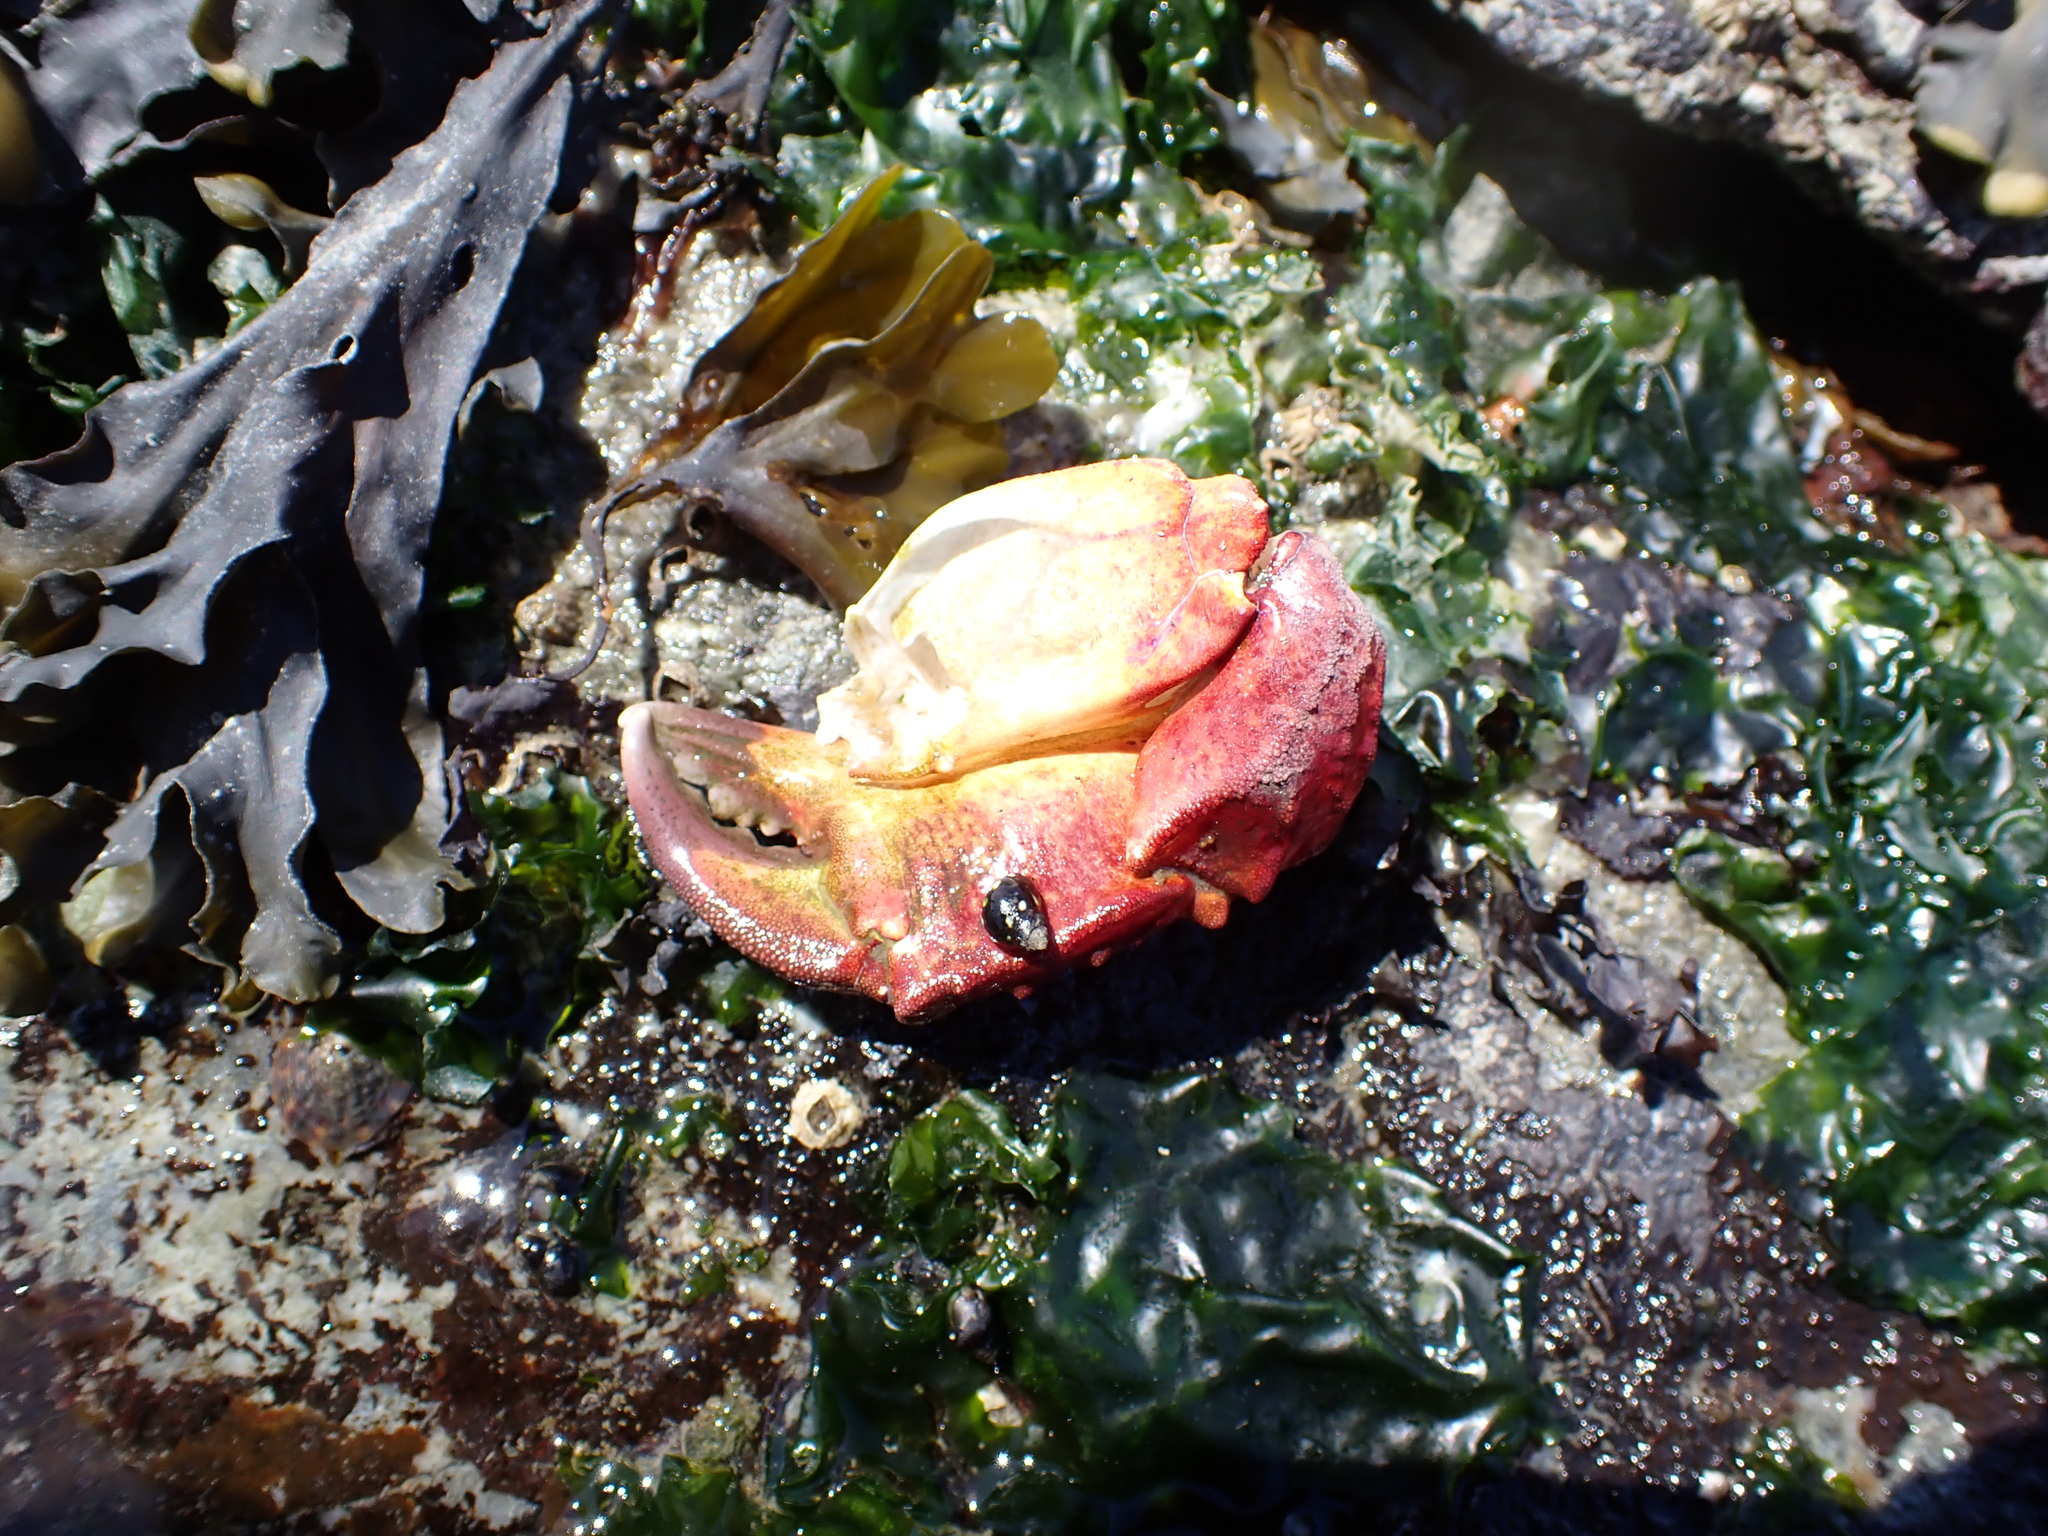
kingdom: Animalia
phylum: Arthropoda
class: Malacostraca
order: Decapoda
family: Cancridae
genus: Cancer
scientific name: Cancer productus
